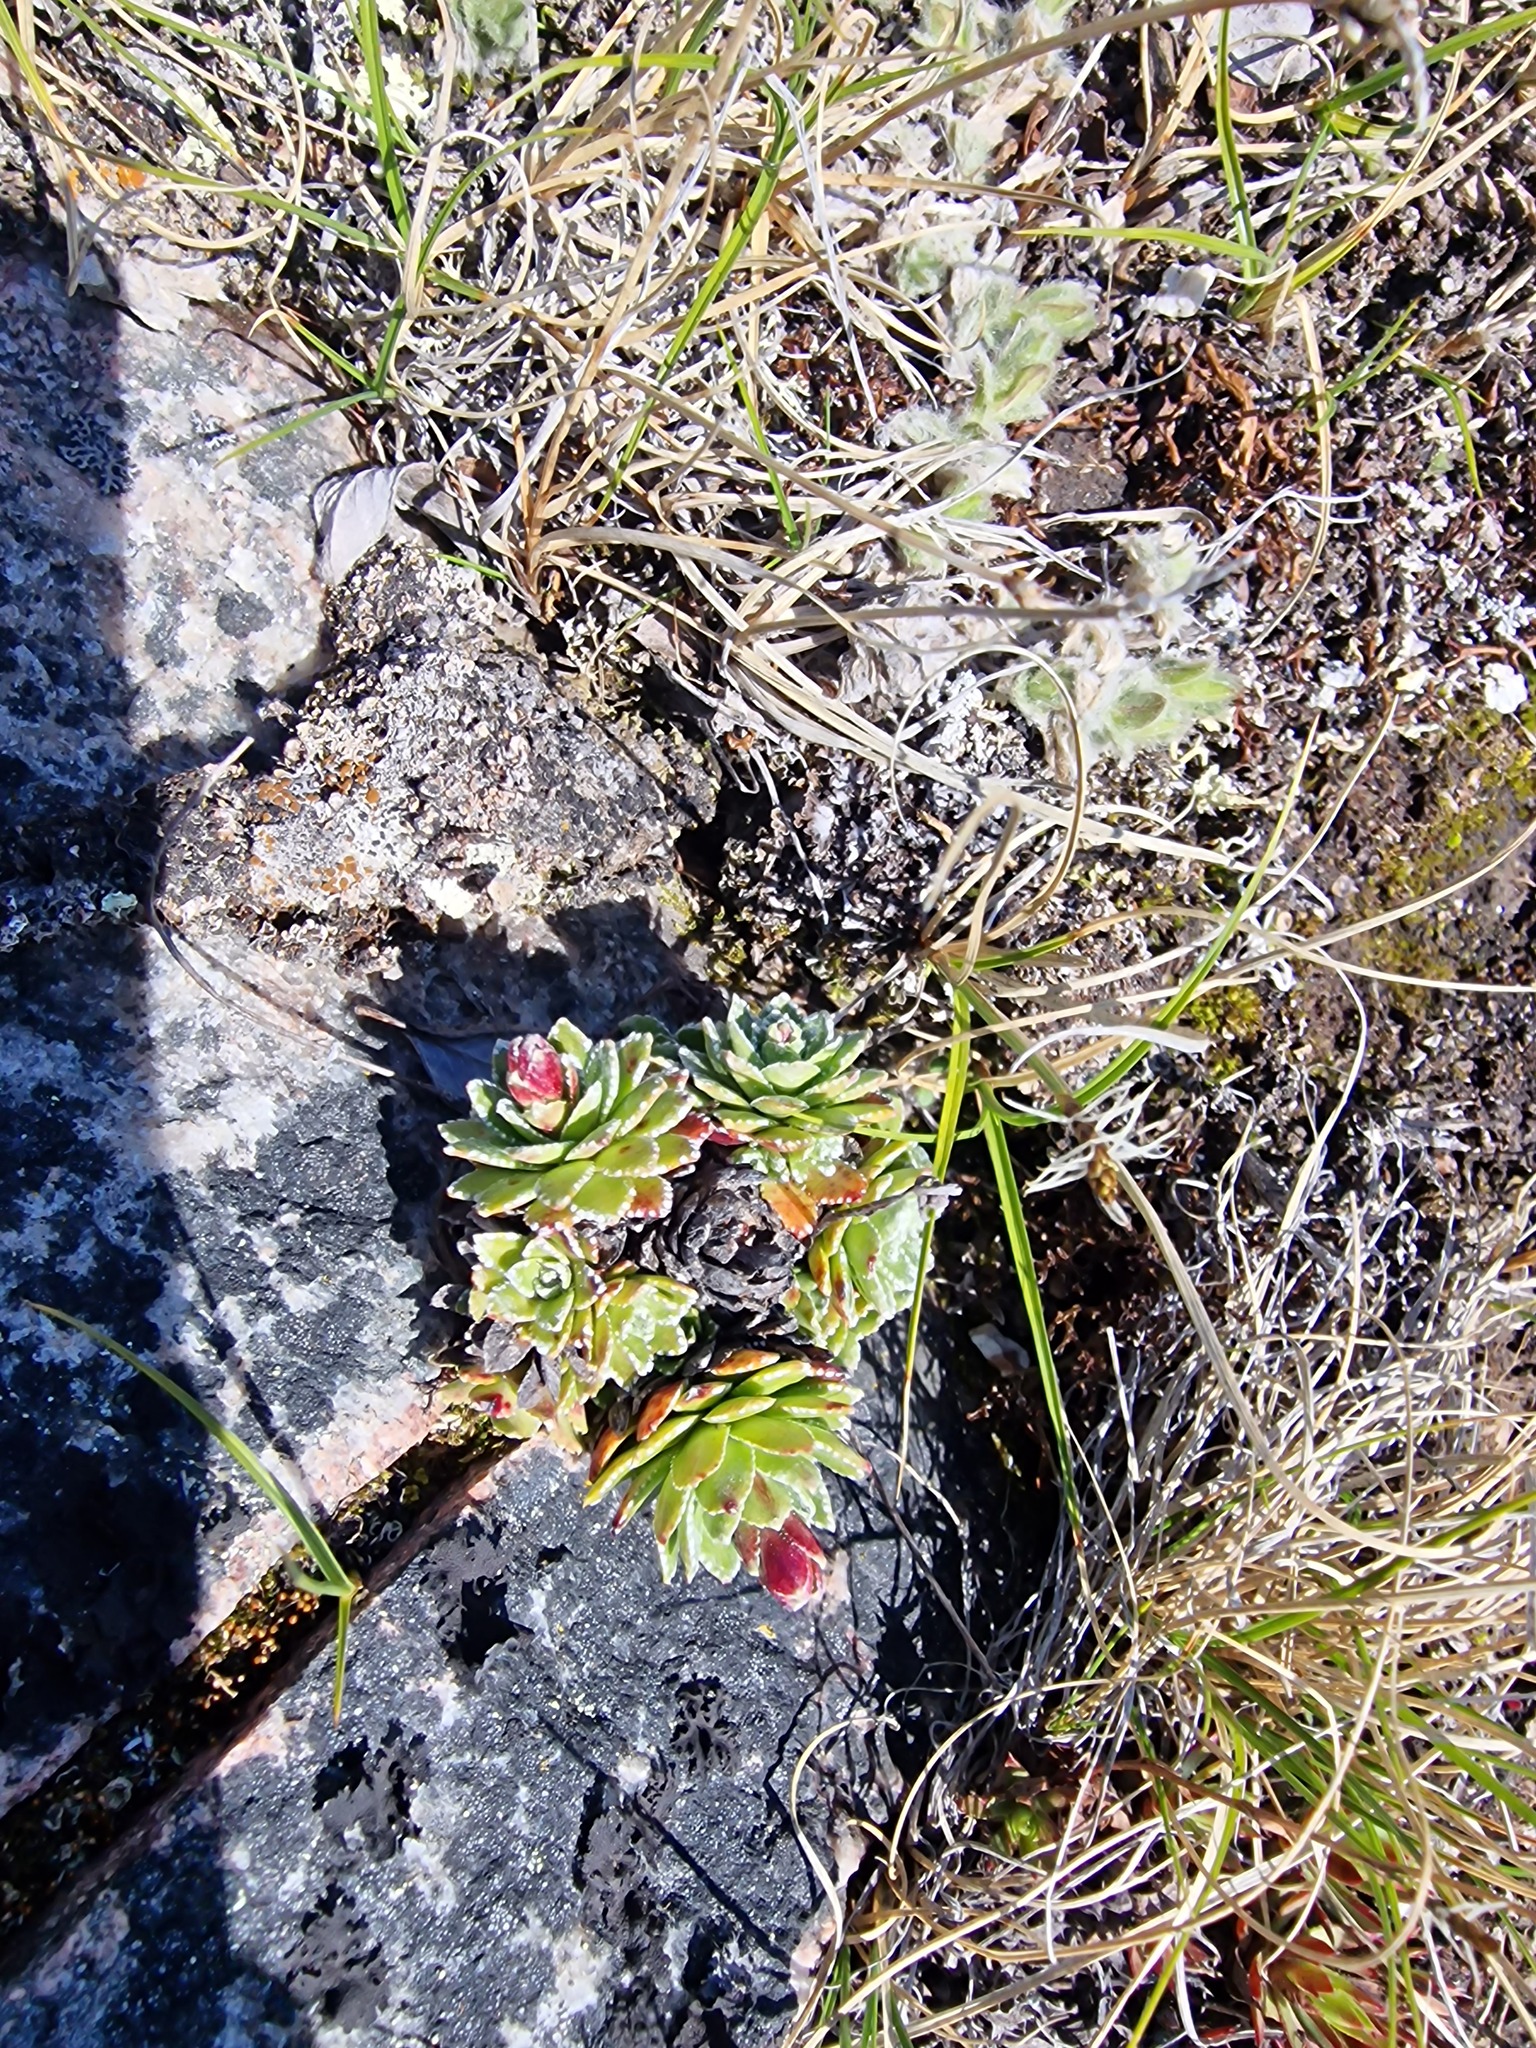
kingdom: Plantae
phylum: Tracheophyta
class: Magnoliopsida
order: Saxifragales
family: Saxifragaceae
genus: Saxifraga
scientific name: Saxifraga paniculata
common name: Livelong saxifrage
